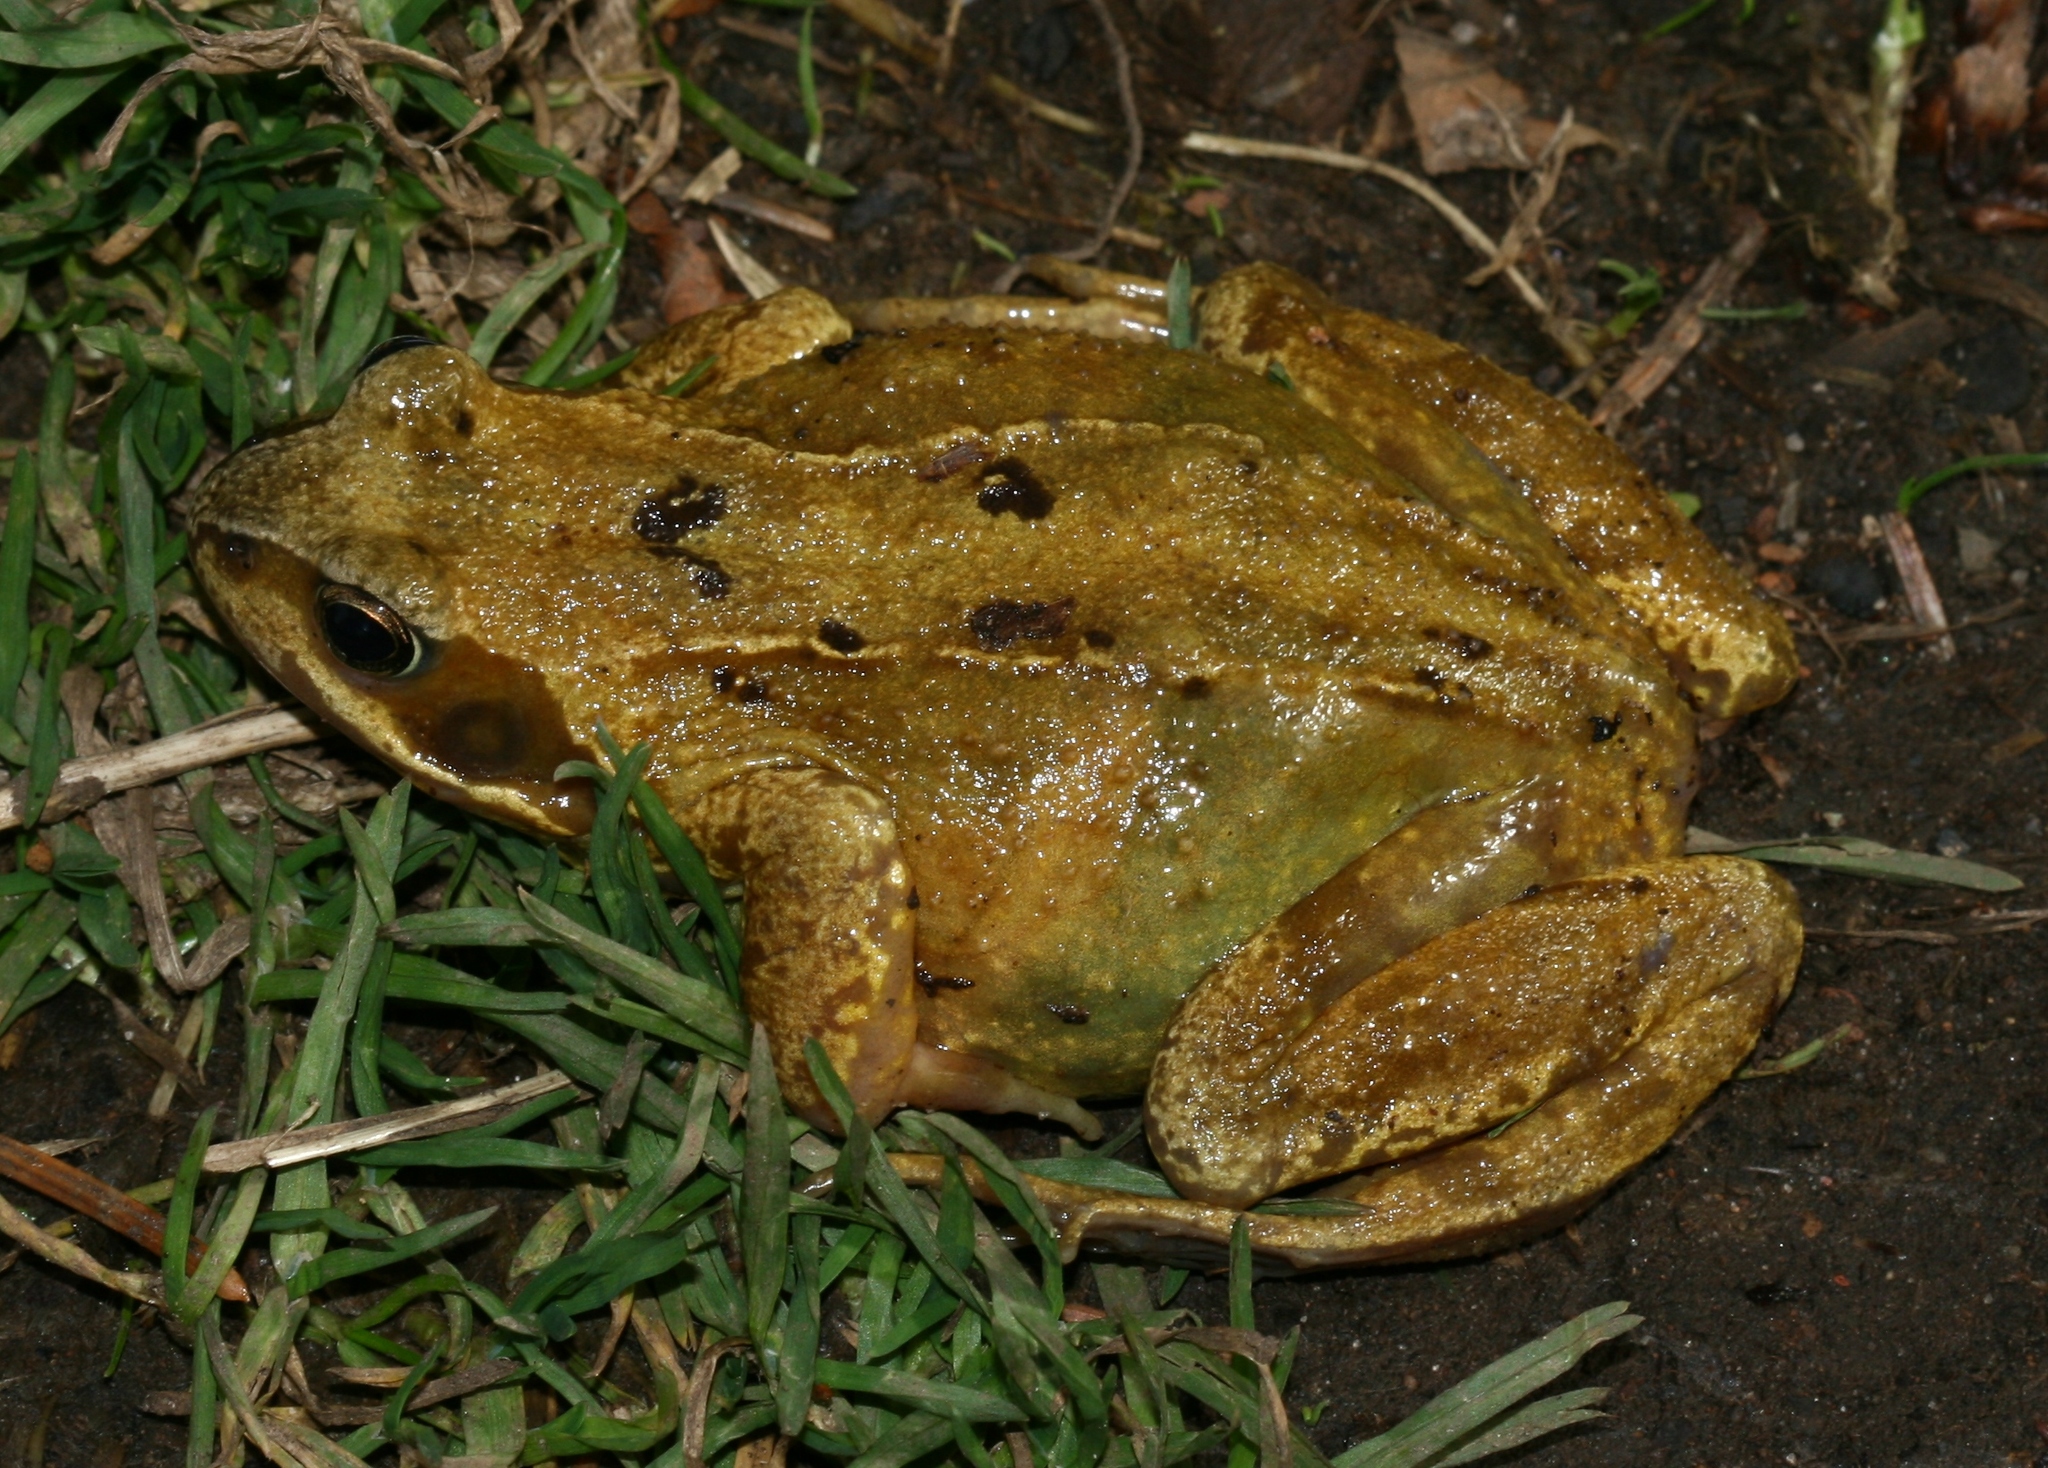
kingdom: Animalia
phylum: Chordata
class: Amphibia
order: Anura
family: Ranidae
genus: Rana
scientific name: Rana temporaria
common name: Common frog
